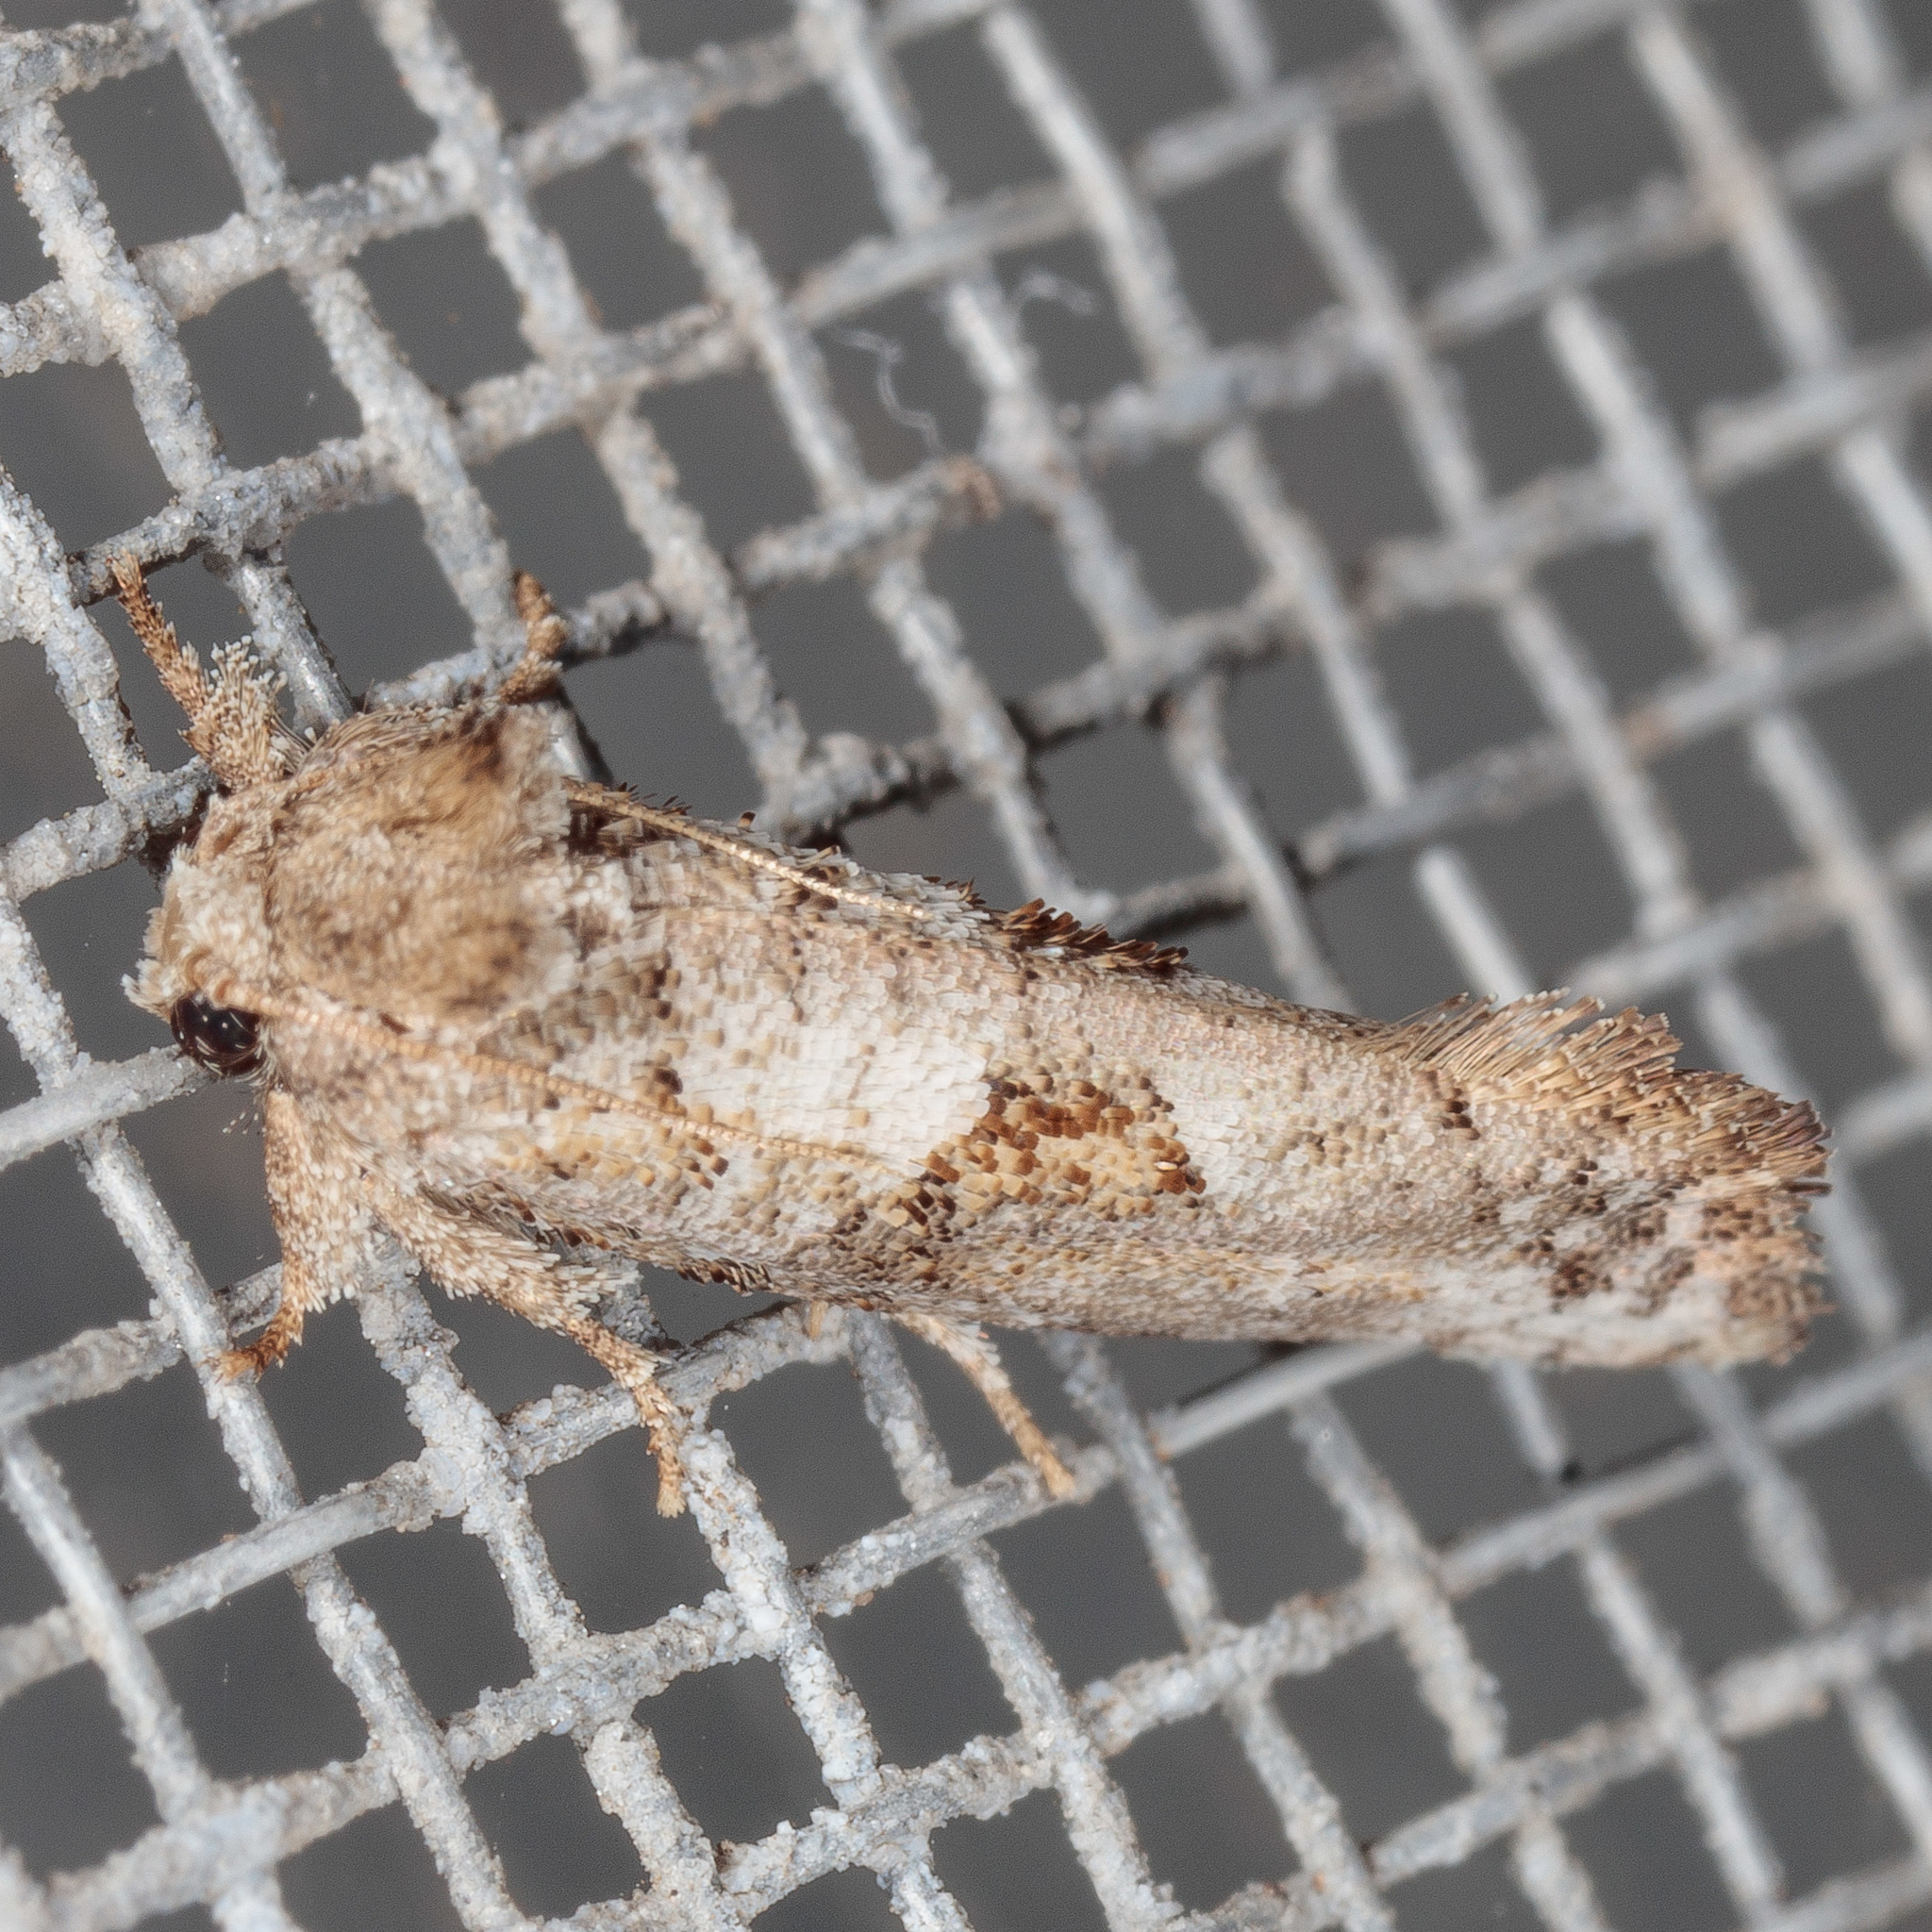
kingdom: Animalia
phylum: Arthropoda
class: Insecta
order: Lepidoptera
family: Tineidae
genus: Acrolophus
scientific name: Acrolophus piger
